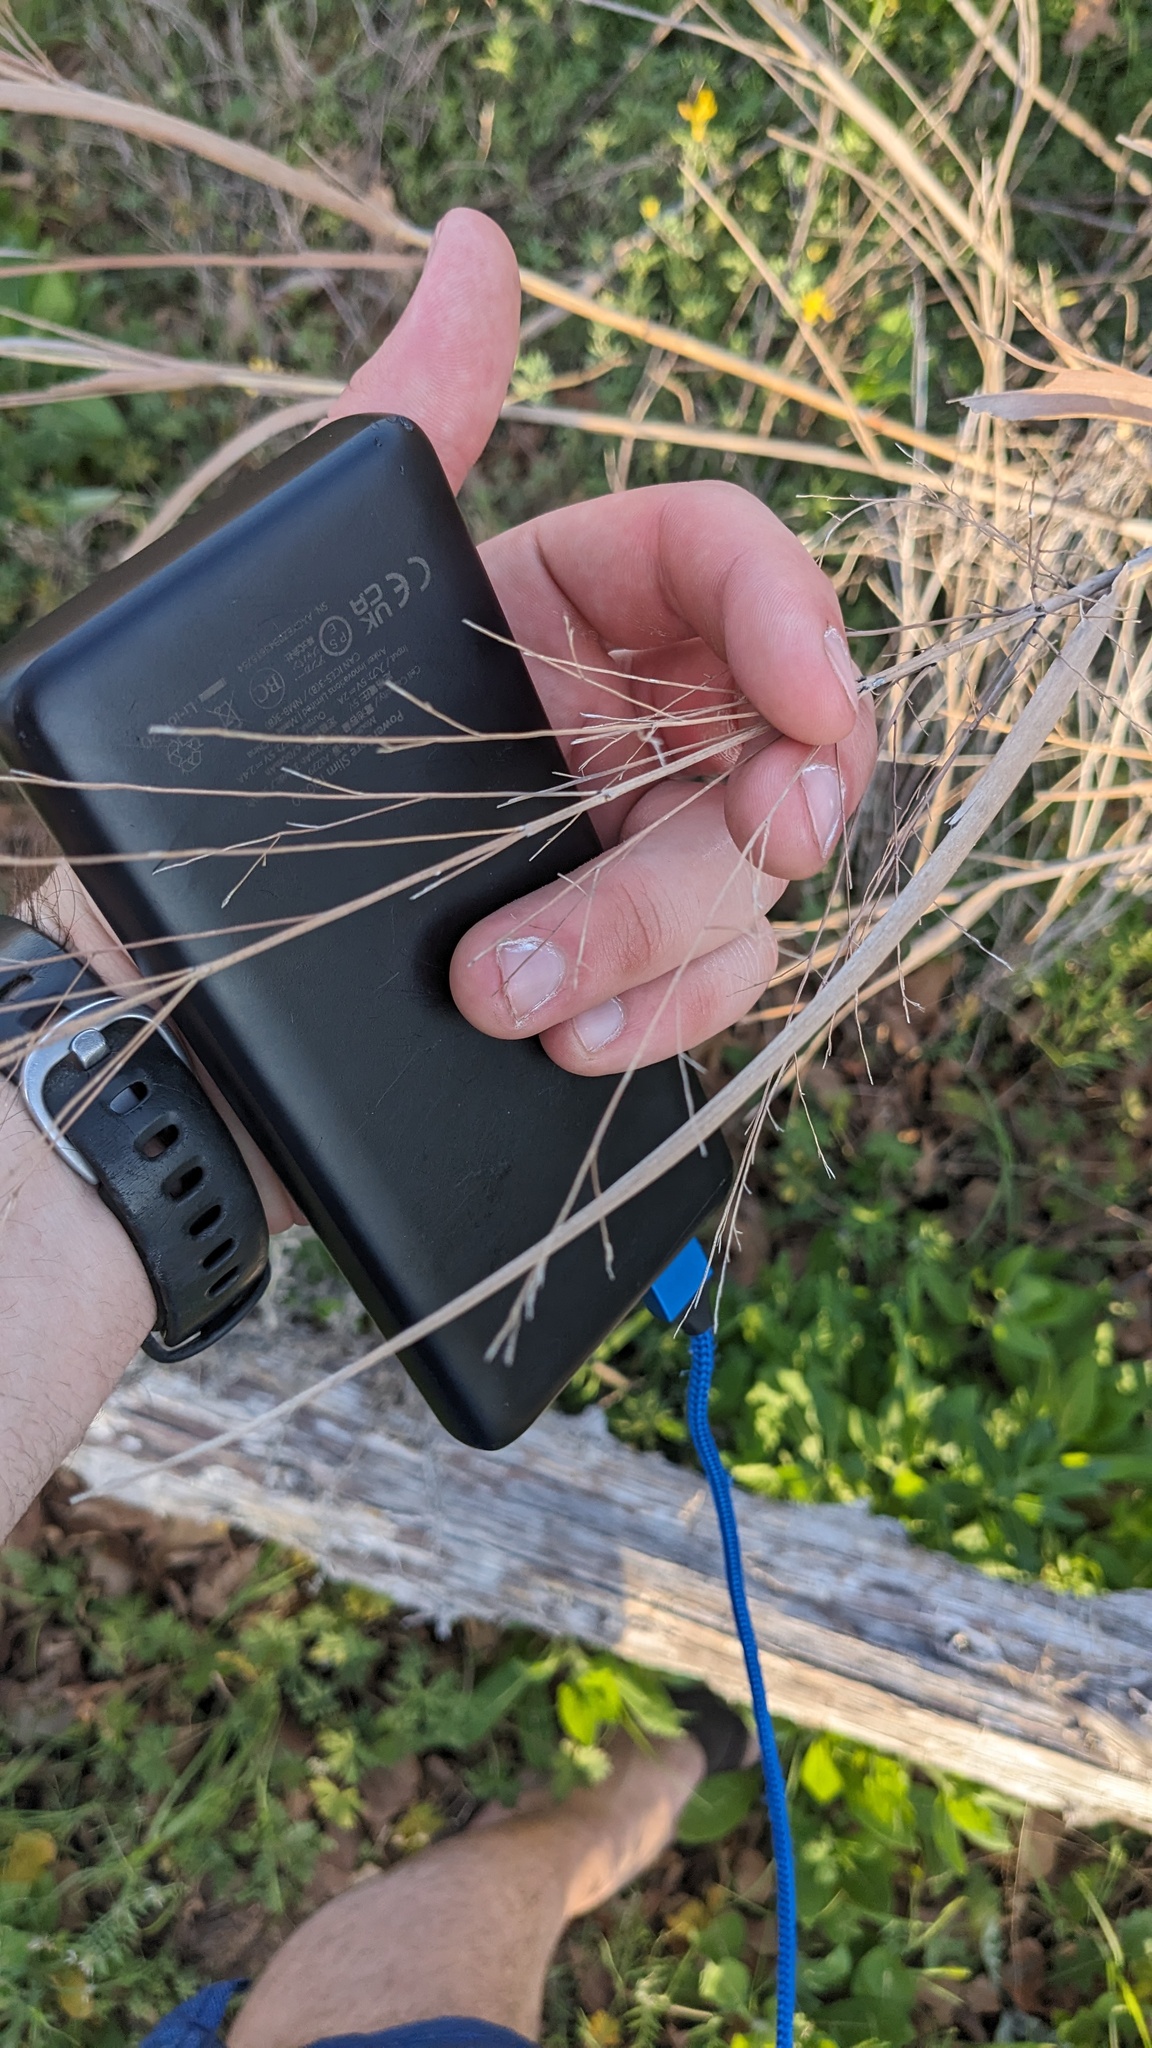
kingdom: Plantae
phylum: Tracheophyta
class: Liliopsida
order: Poales
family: Poaceae
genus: Panicum
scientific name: Panicum virgatum
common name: Switchgrass
